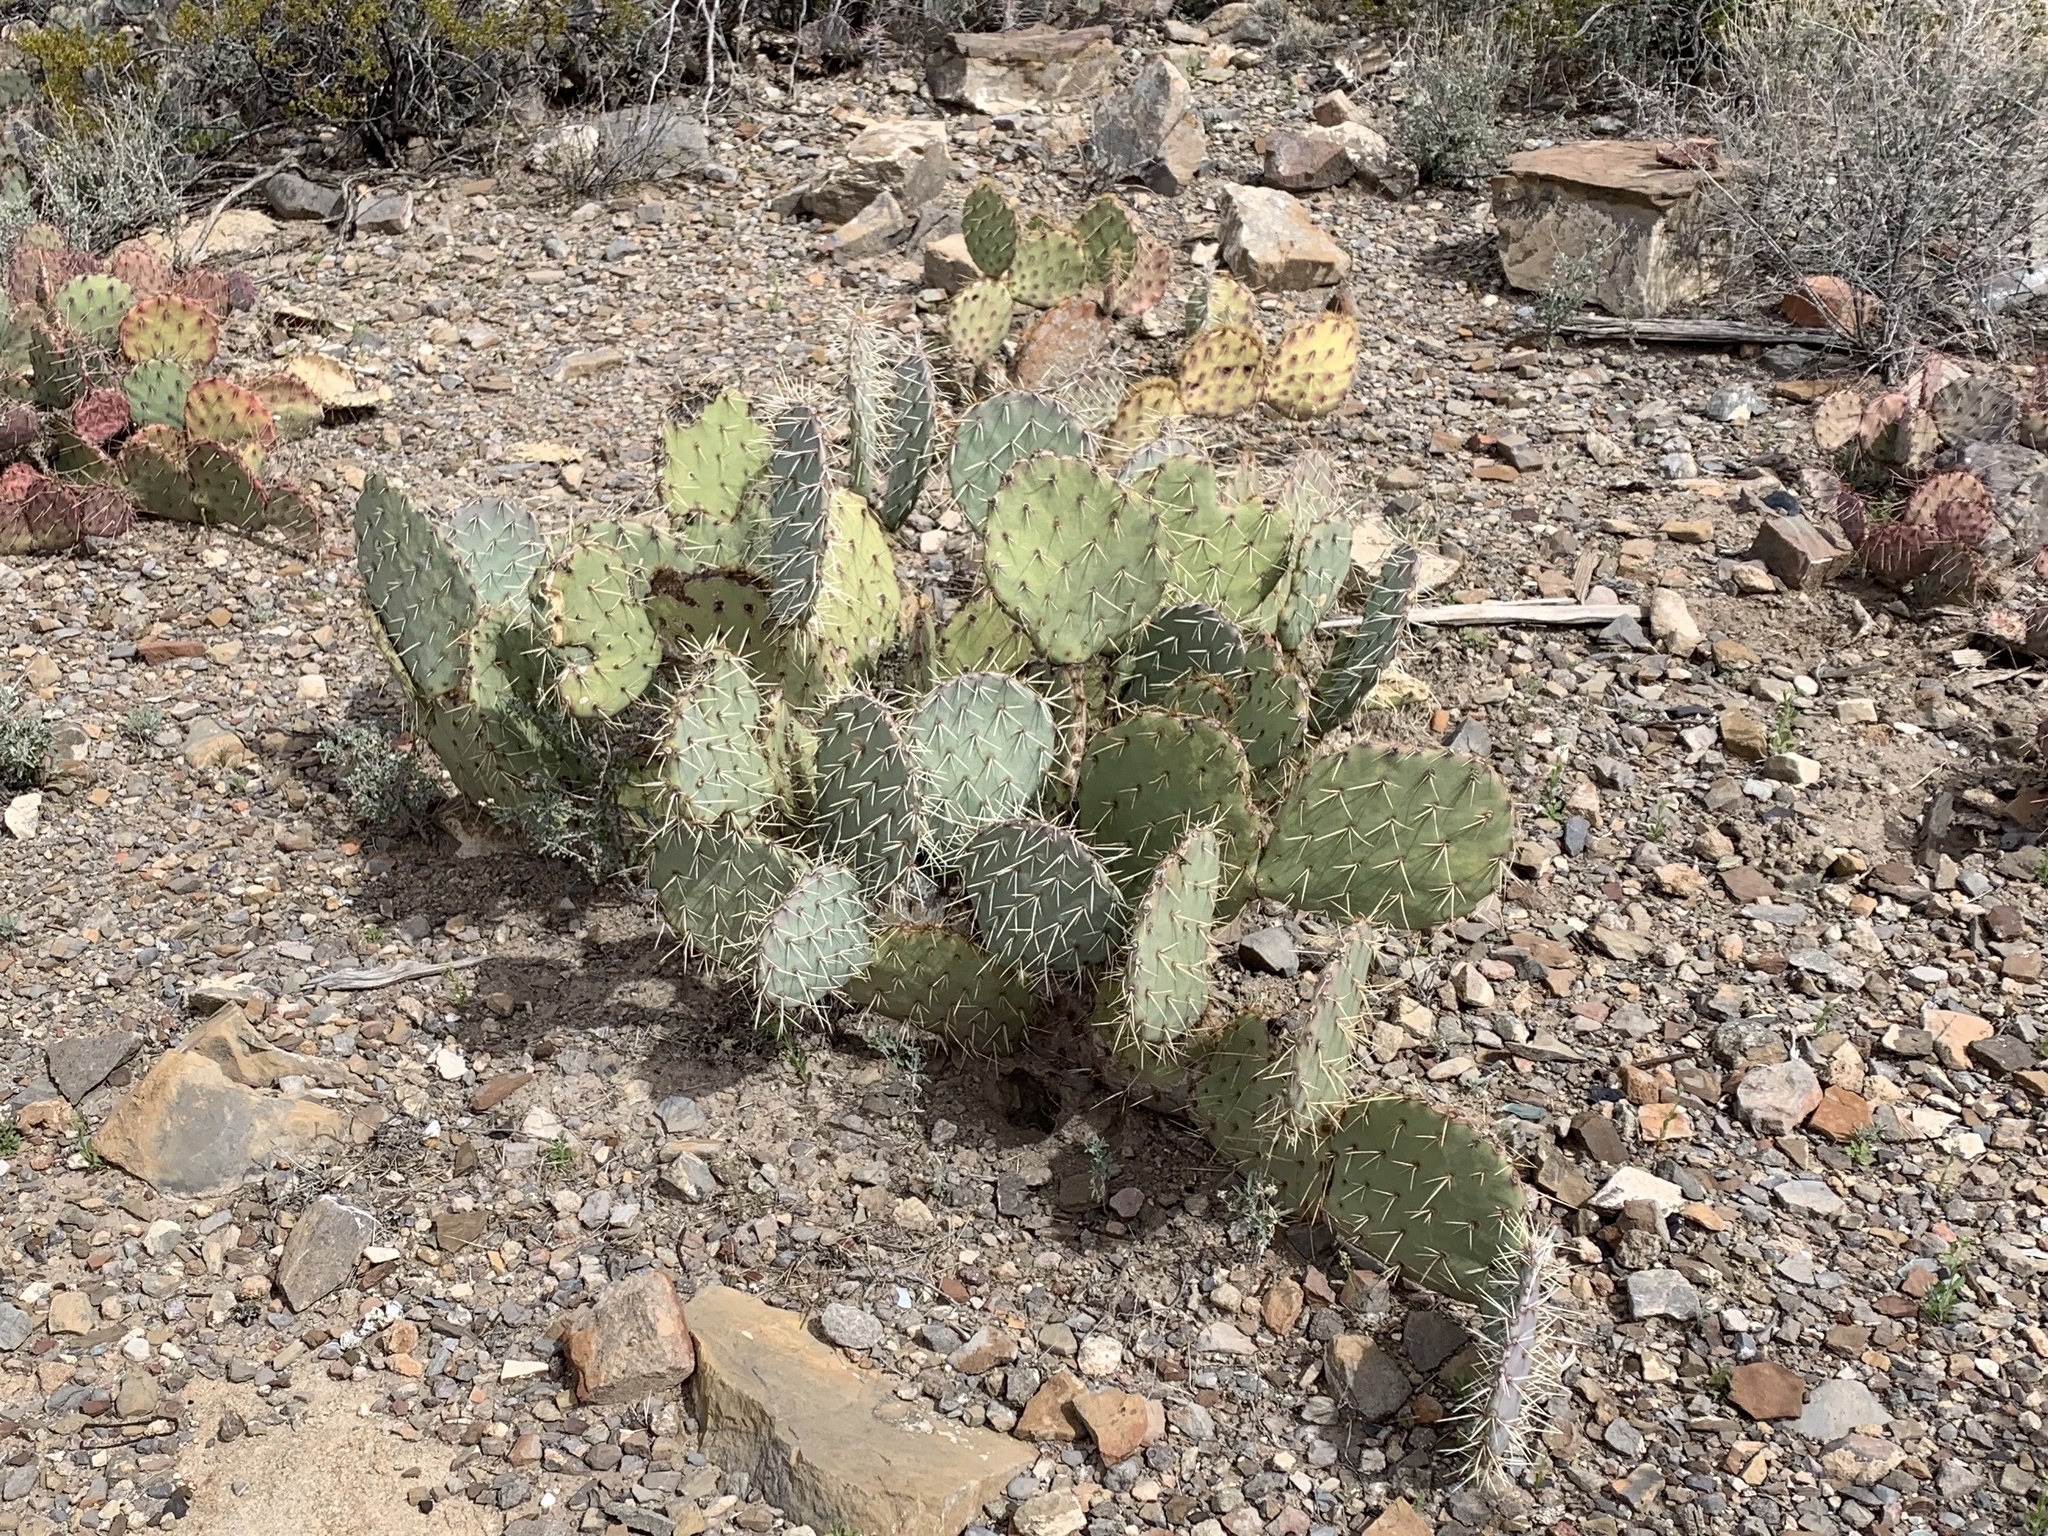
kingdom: Plantae
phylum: Tracheophyta
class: Magnoliopsida
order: Caryophyllales
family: Cactaceae
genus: Opuntia
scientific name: Opuntia engelmannii
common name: Cactus-apple
